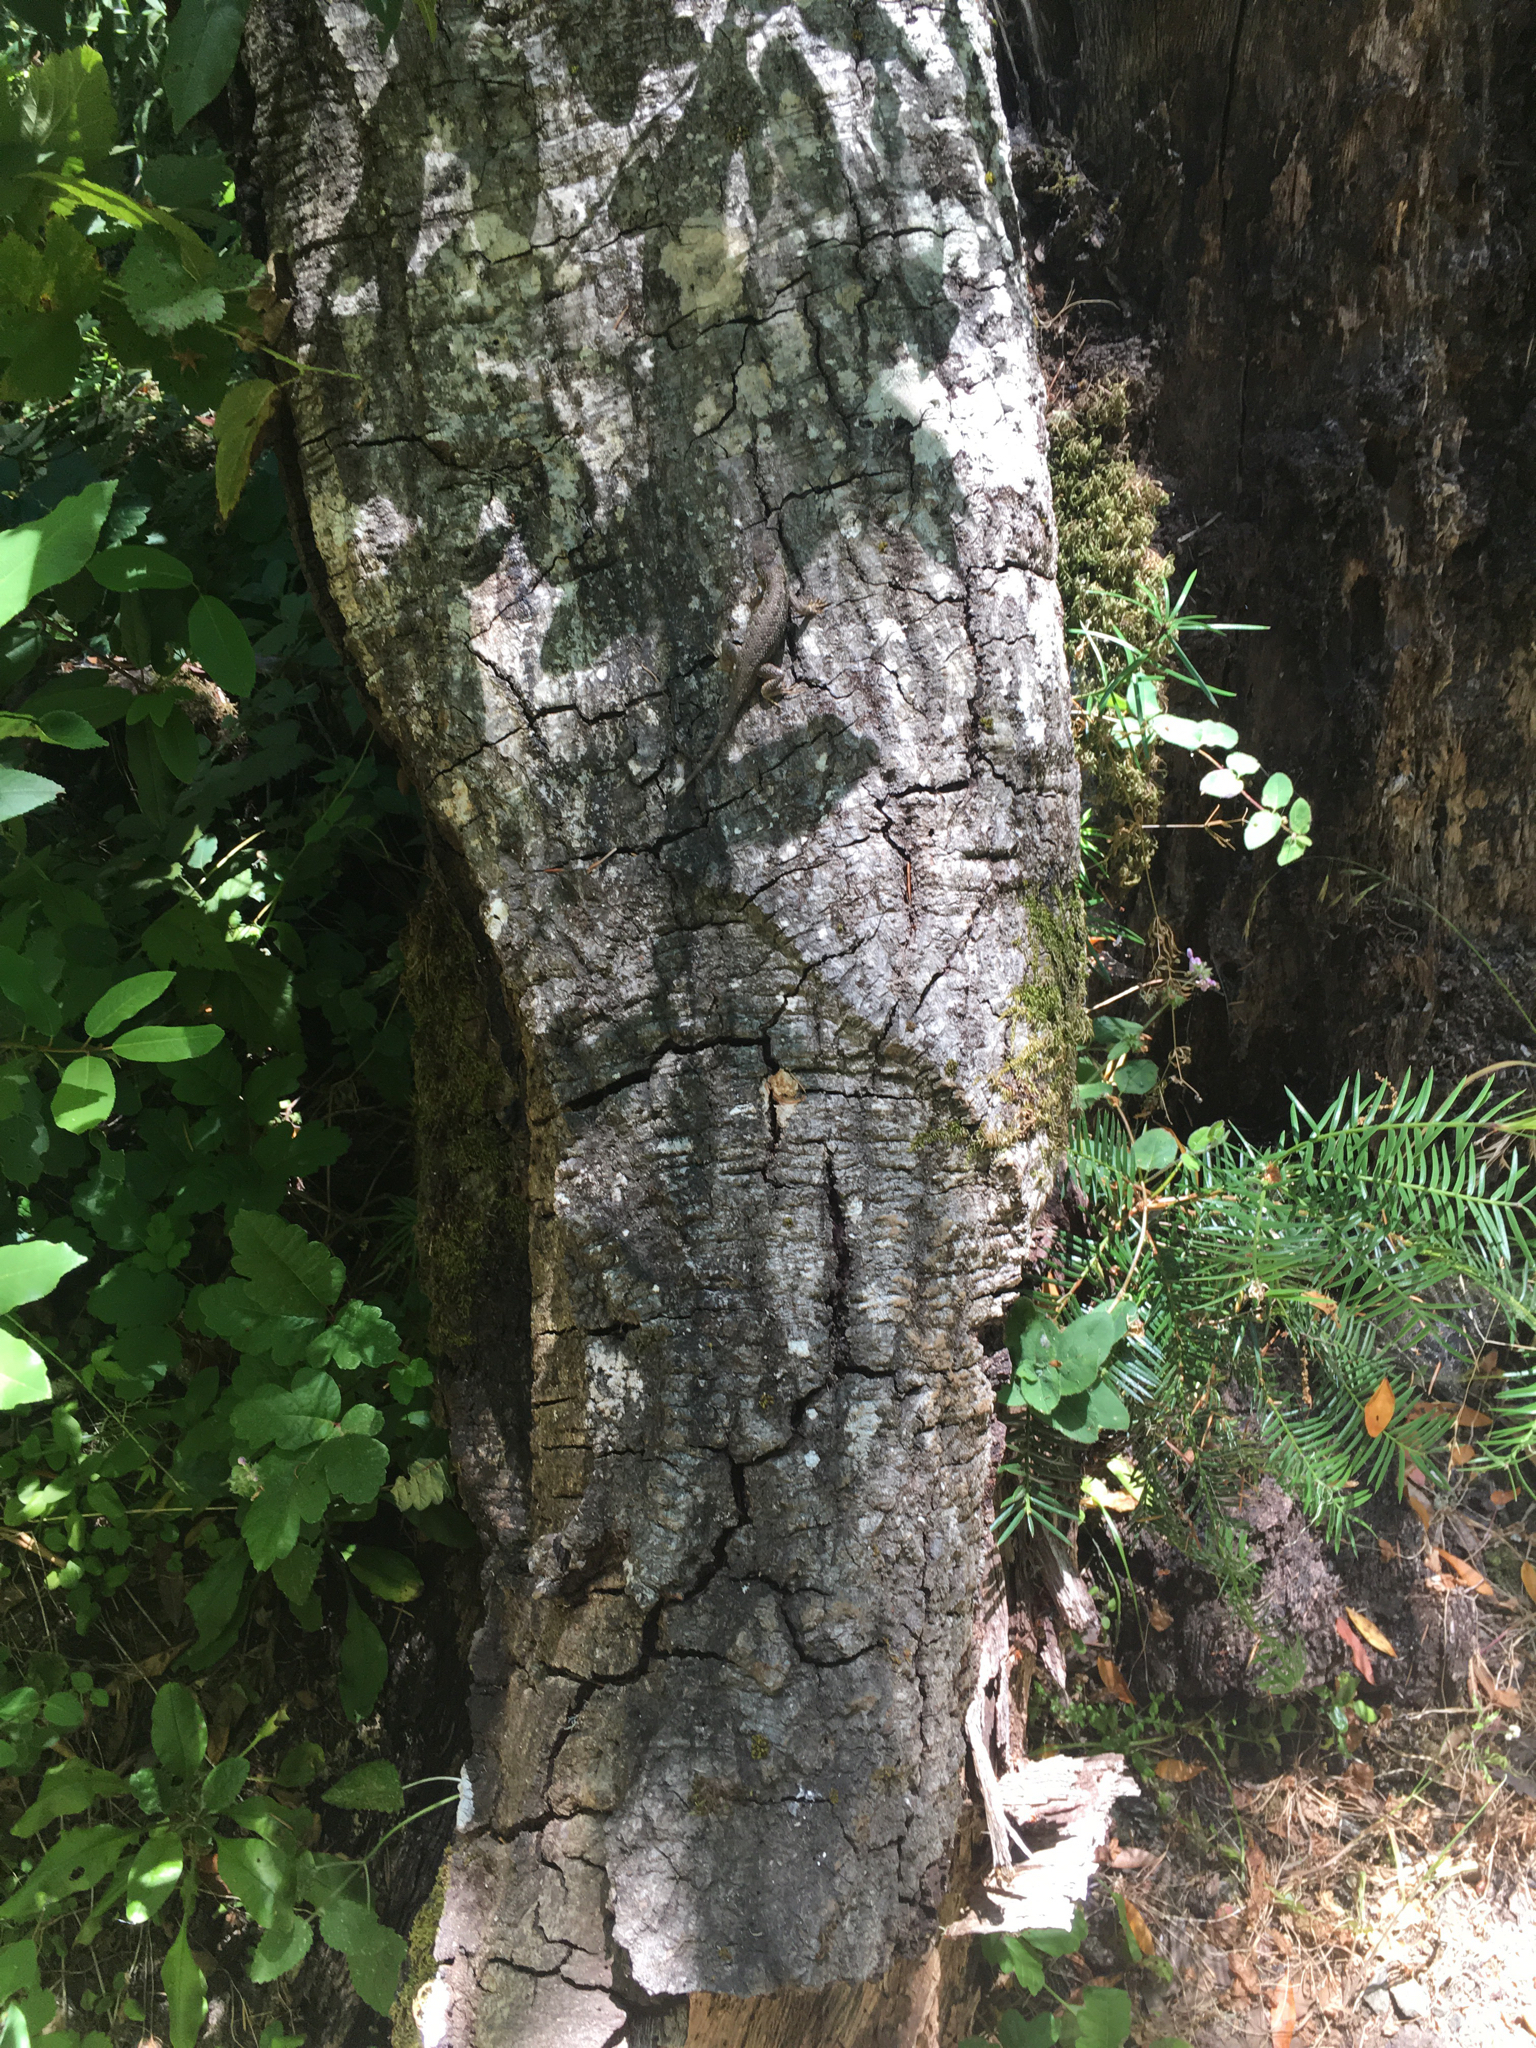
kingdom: Animalia
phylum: Chordata
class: Squamata
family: Phrynosomatidae
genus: Sceloporus
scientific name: Sceloporus occidentalis
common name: Western fence lizard
